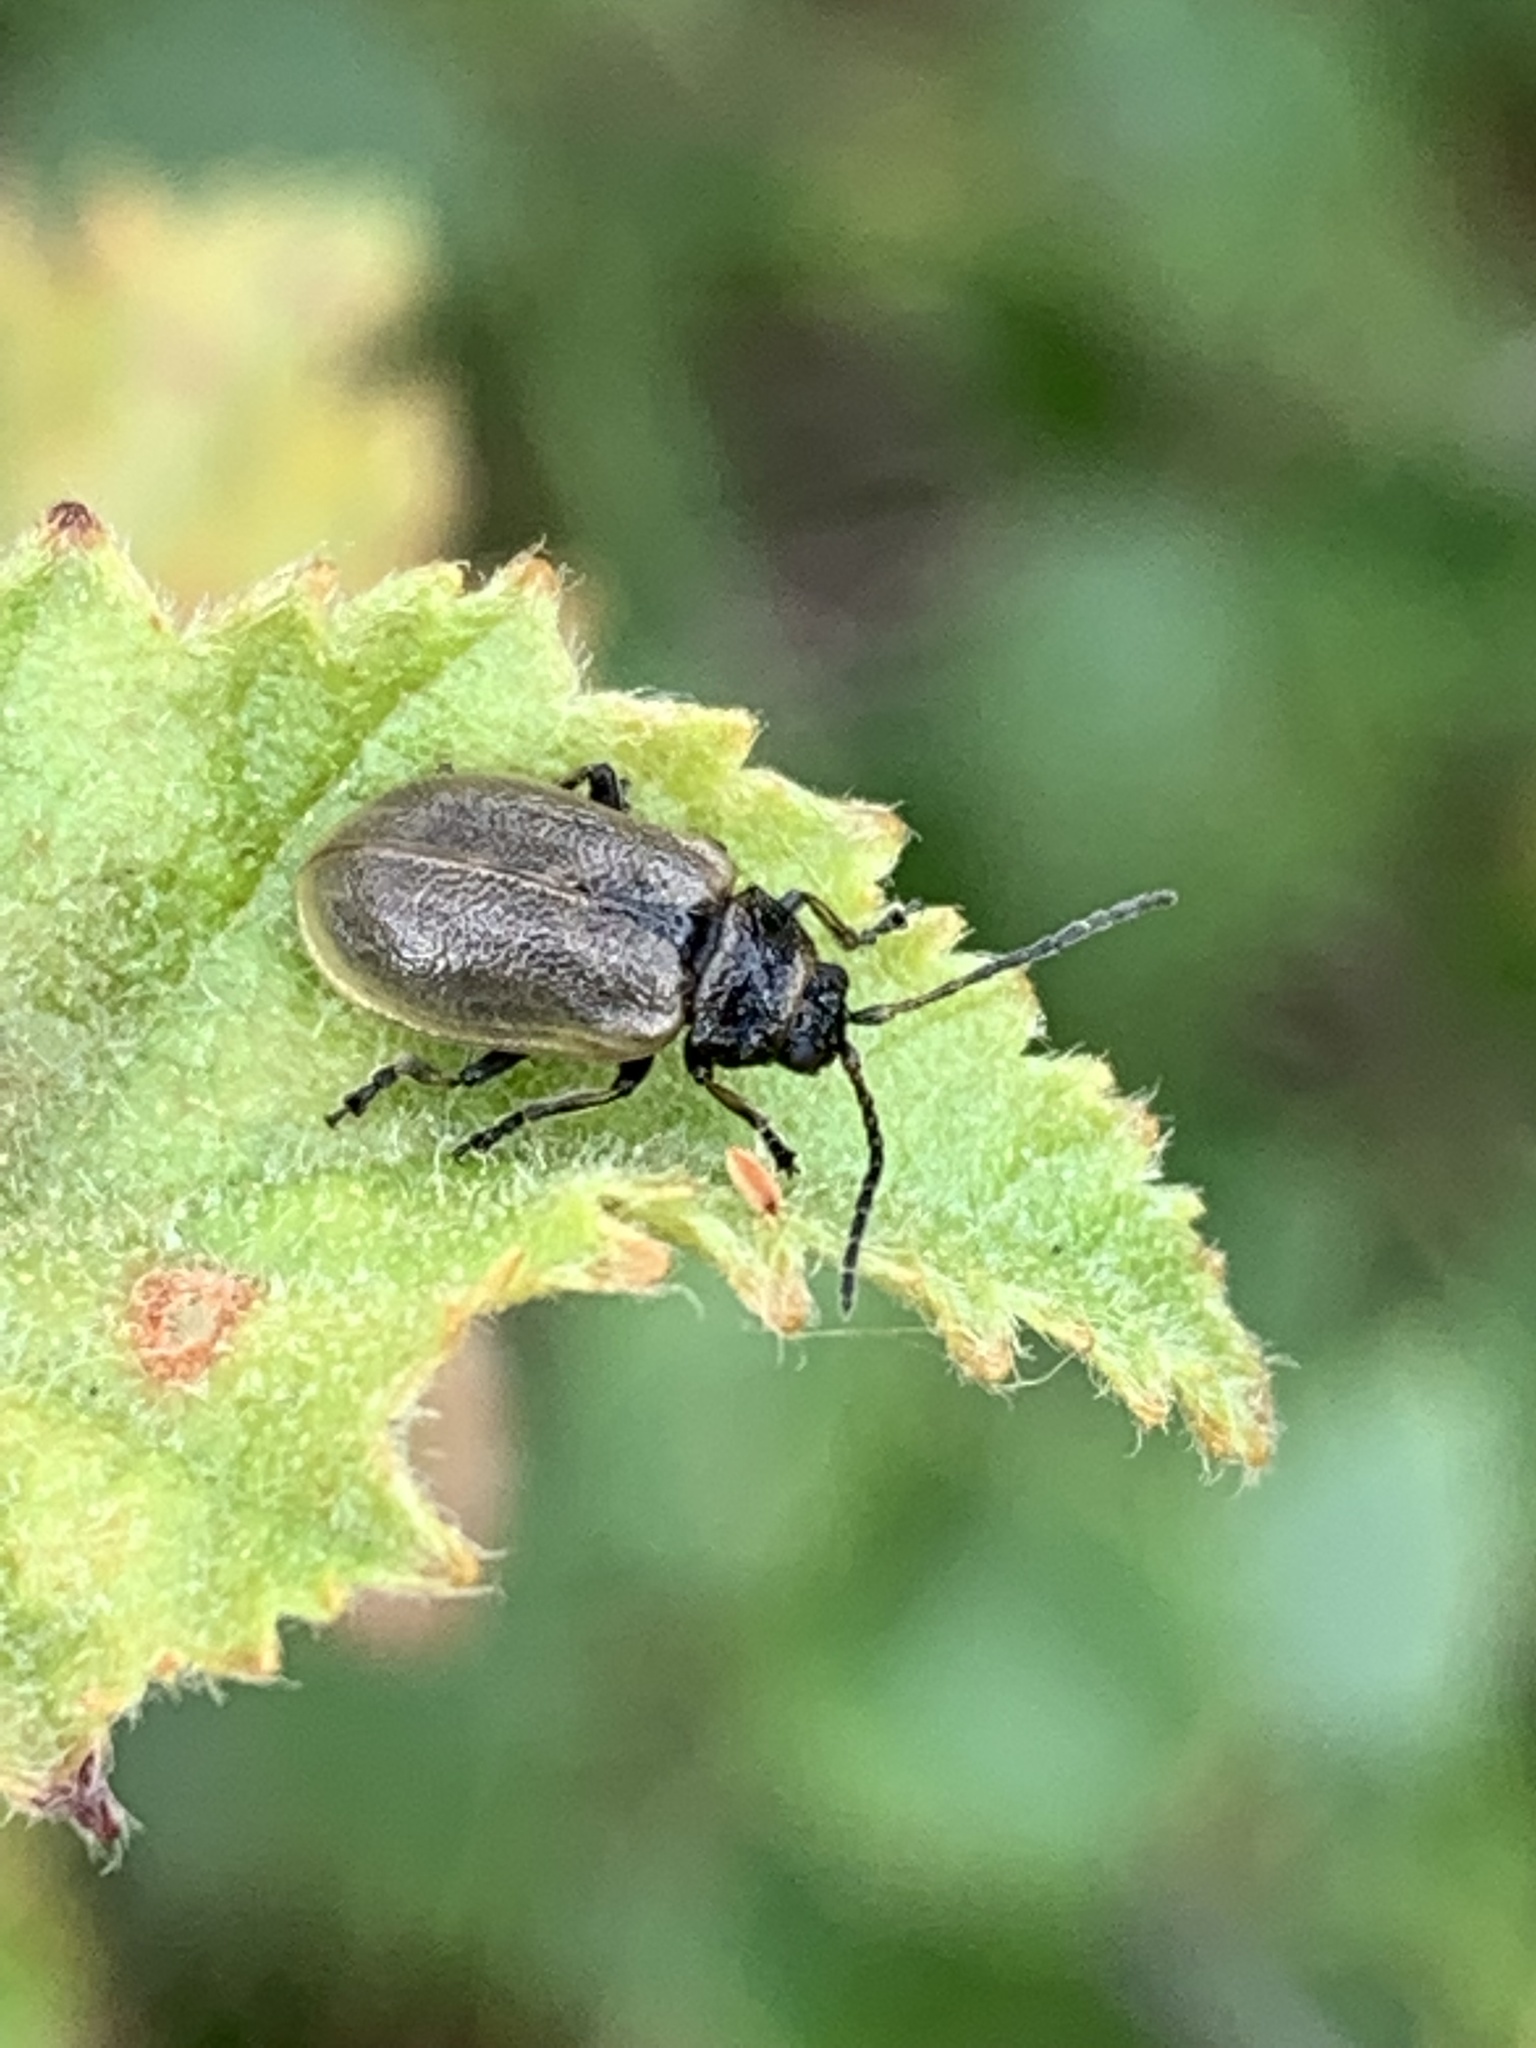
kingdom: Animalia
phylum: Arthropoda
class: Insecta
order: Coleoptera
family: Chrysomelidae
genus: Lochmaea
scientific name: Lochmaea caprea
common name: Willow leaf beetle
